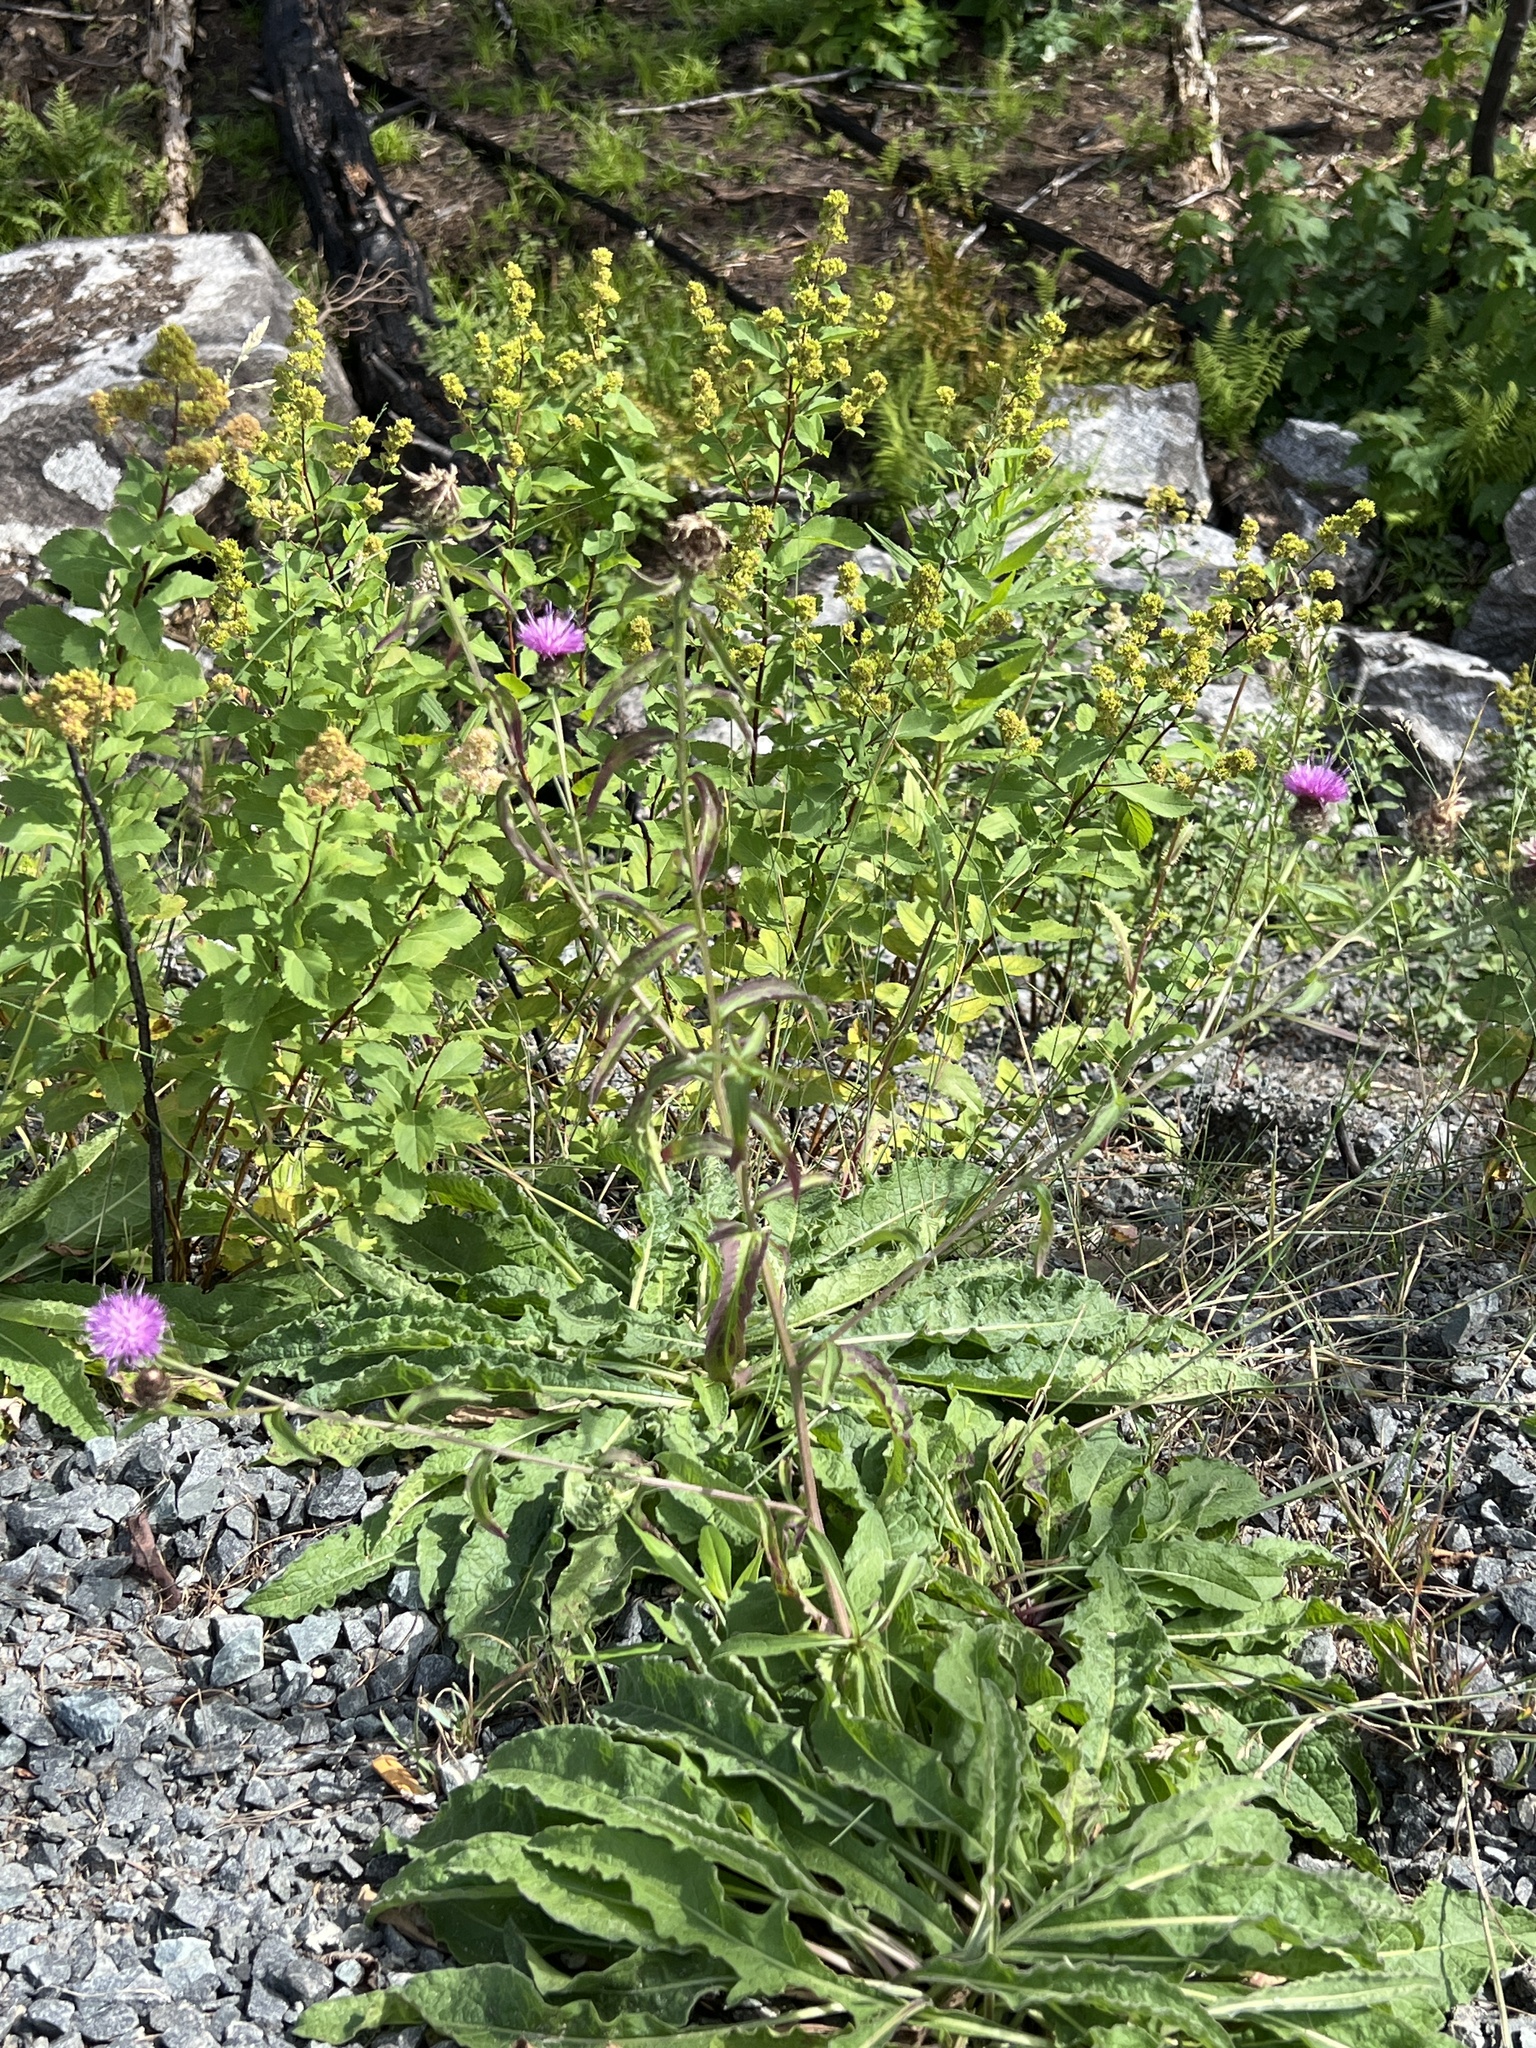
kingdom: Plantae
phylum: Tracheophyta
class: Magnoliopsida
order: Asterales
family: Asteraceae
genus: Centaurea
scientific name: Centaurea nigra
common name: Lesser knapweed
